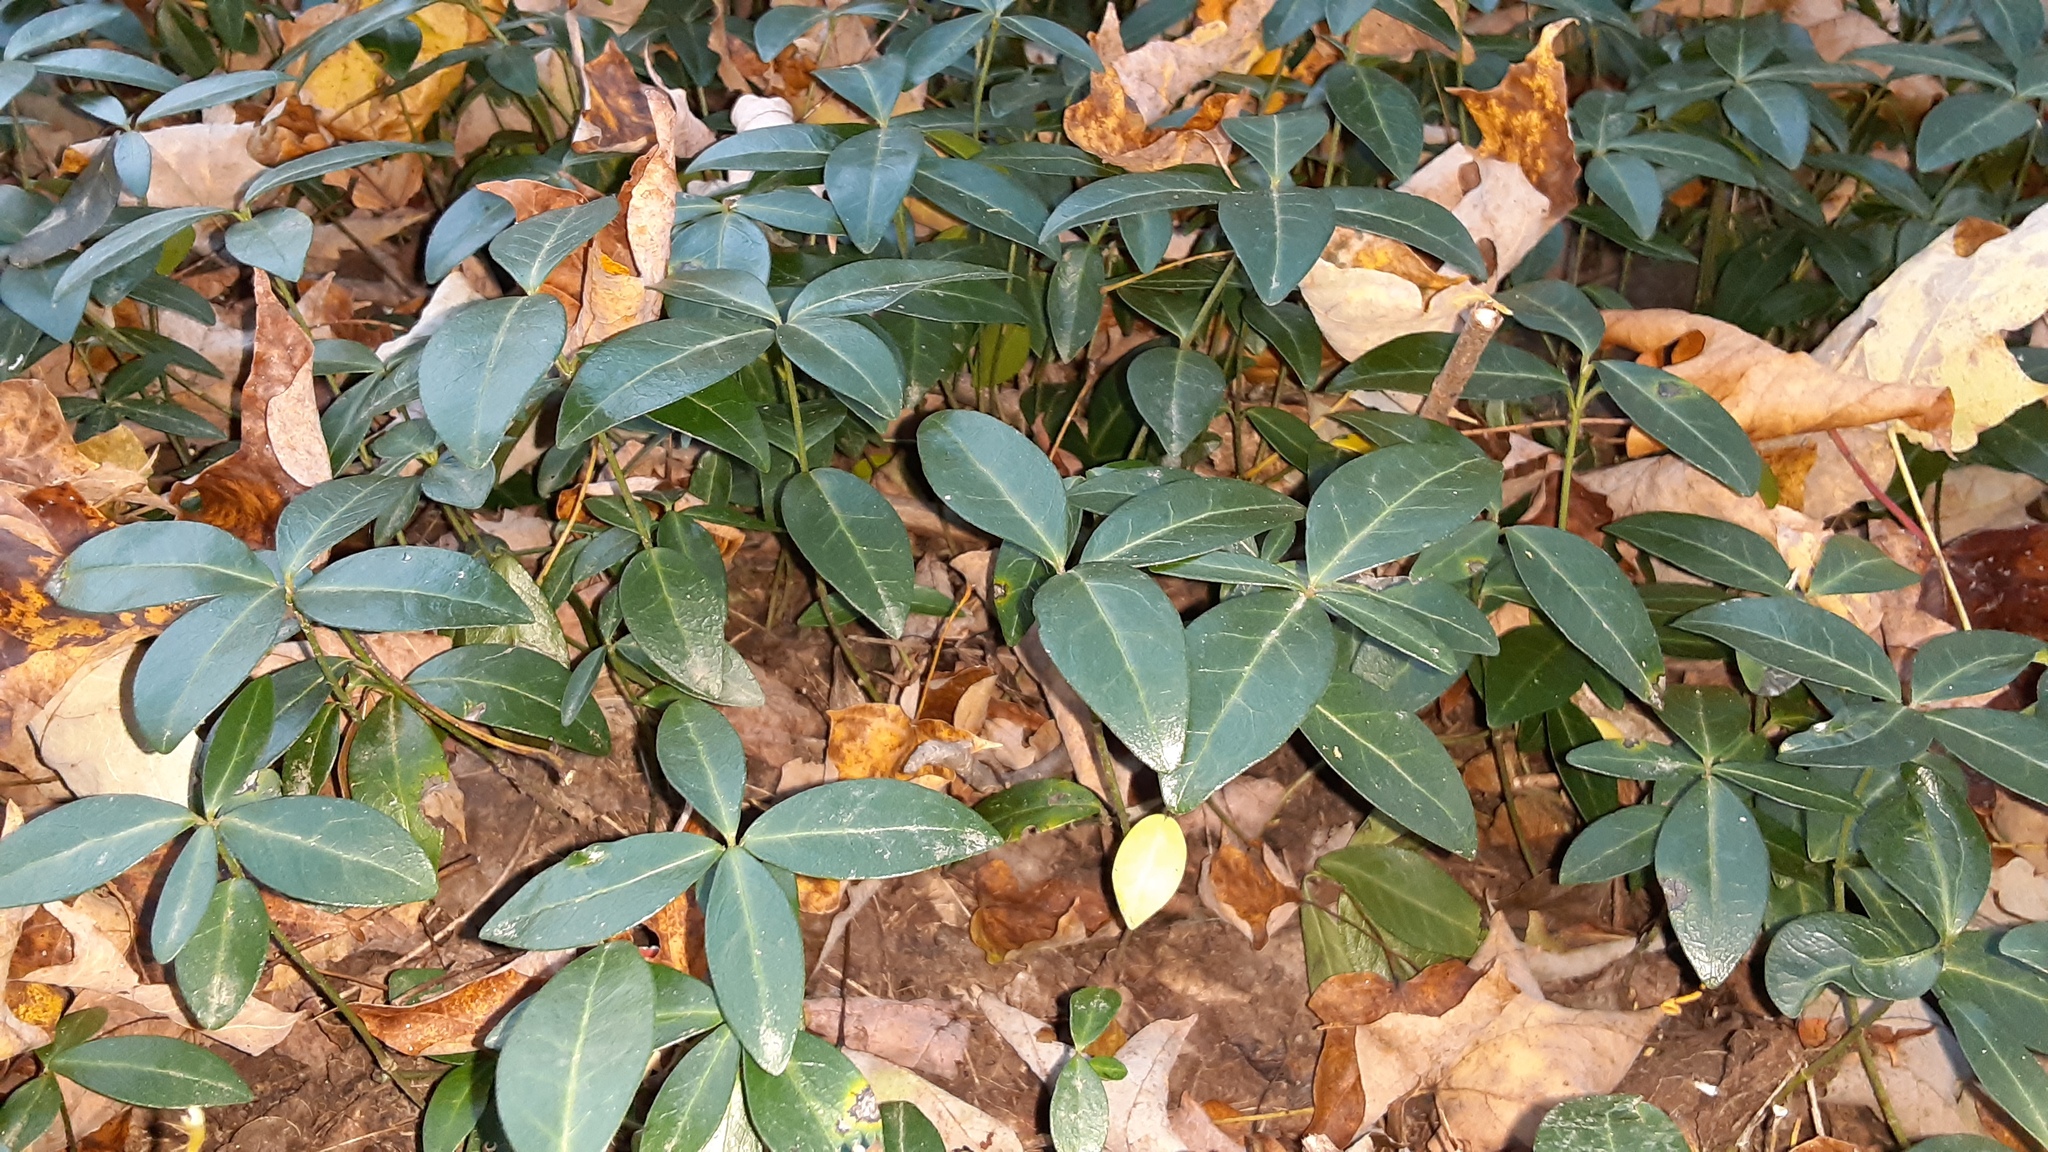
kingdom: Plantae
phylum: Tracheophyta
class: Magnoliopsida
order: Gentianales
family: Apocynaceae
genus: Vinca
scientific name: Vinca minor
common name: Lesser periwinkle
